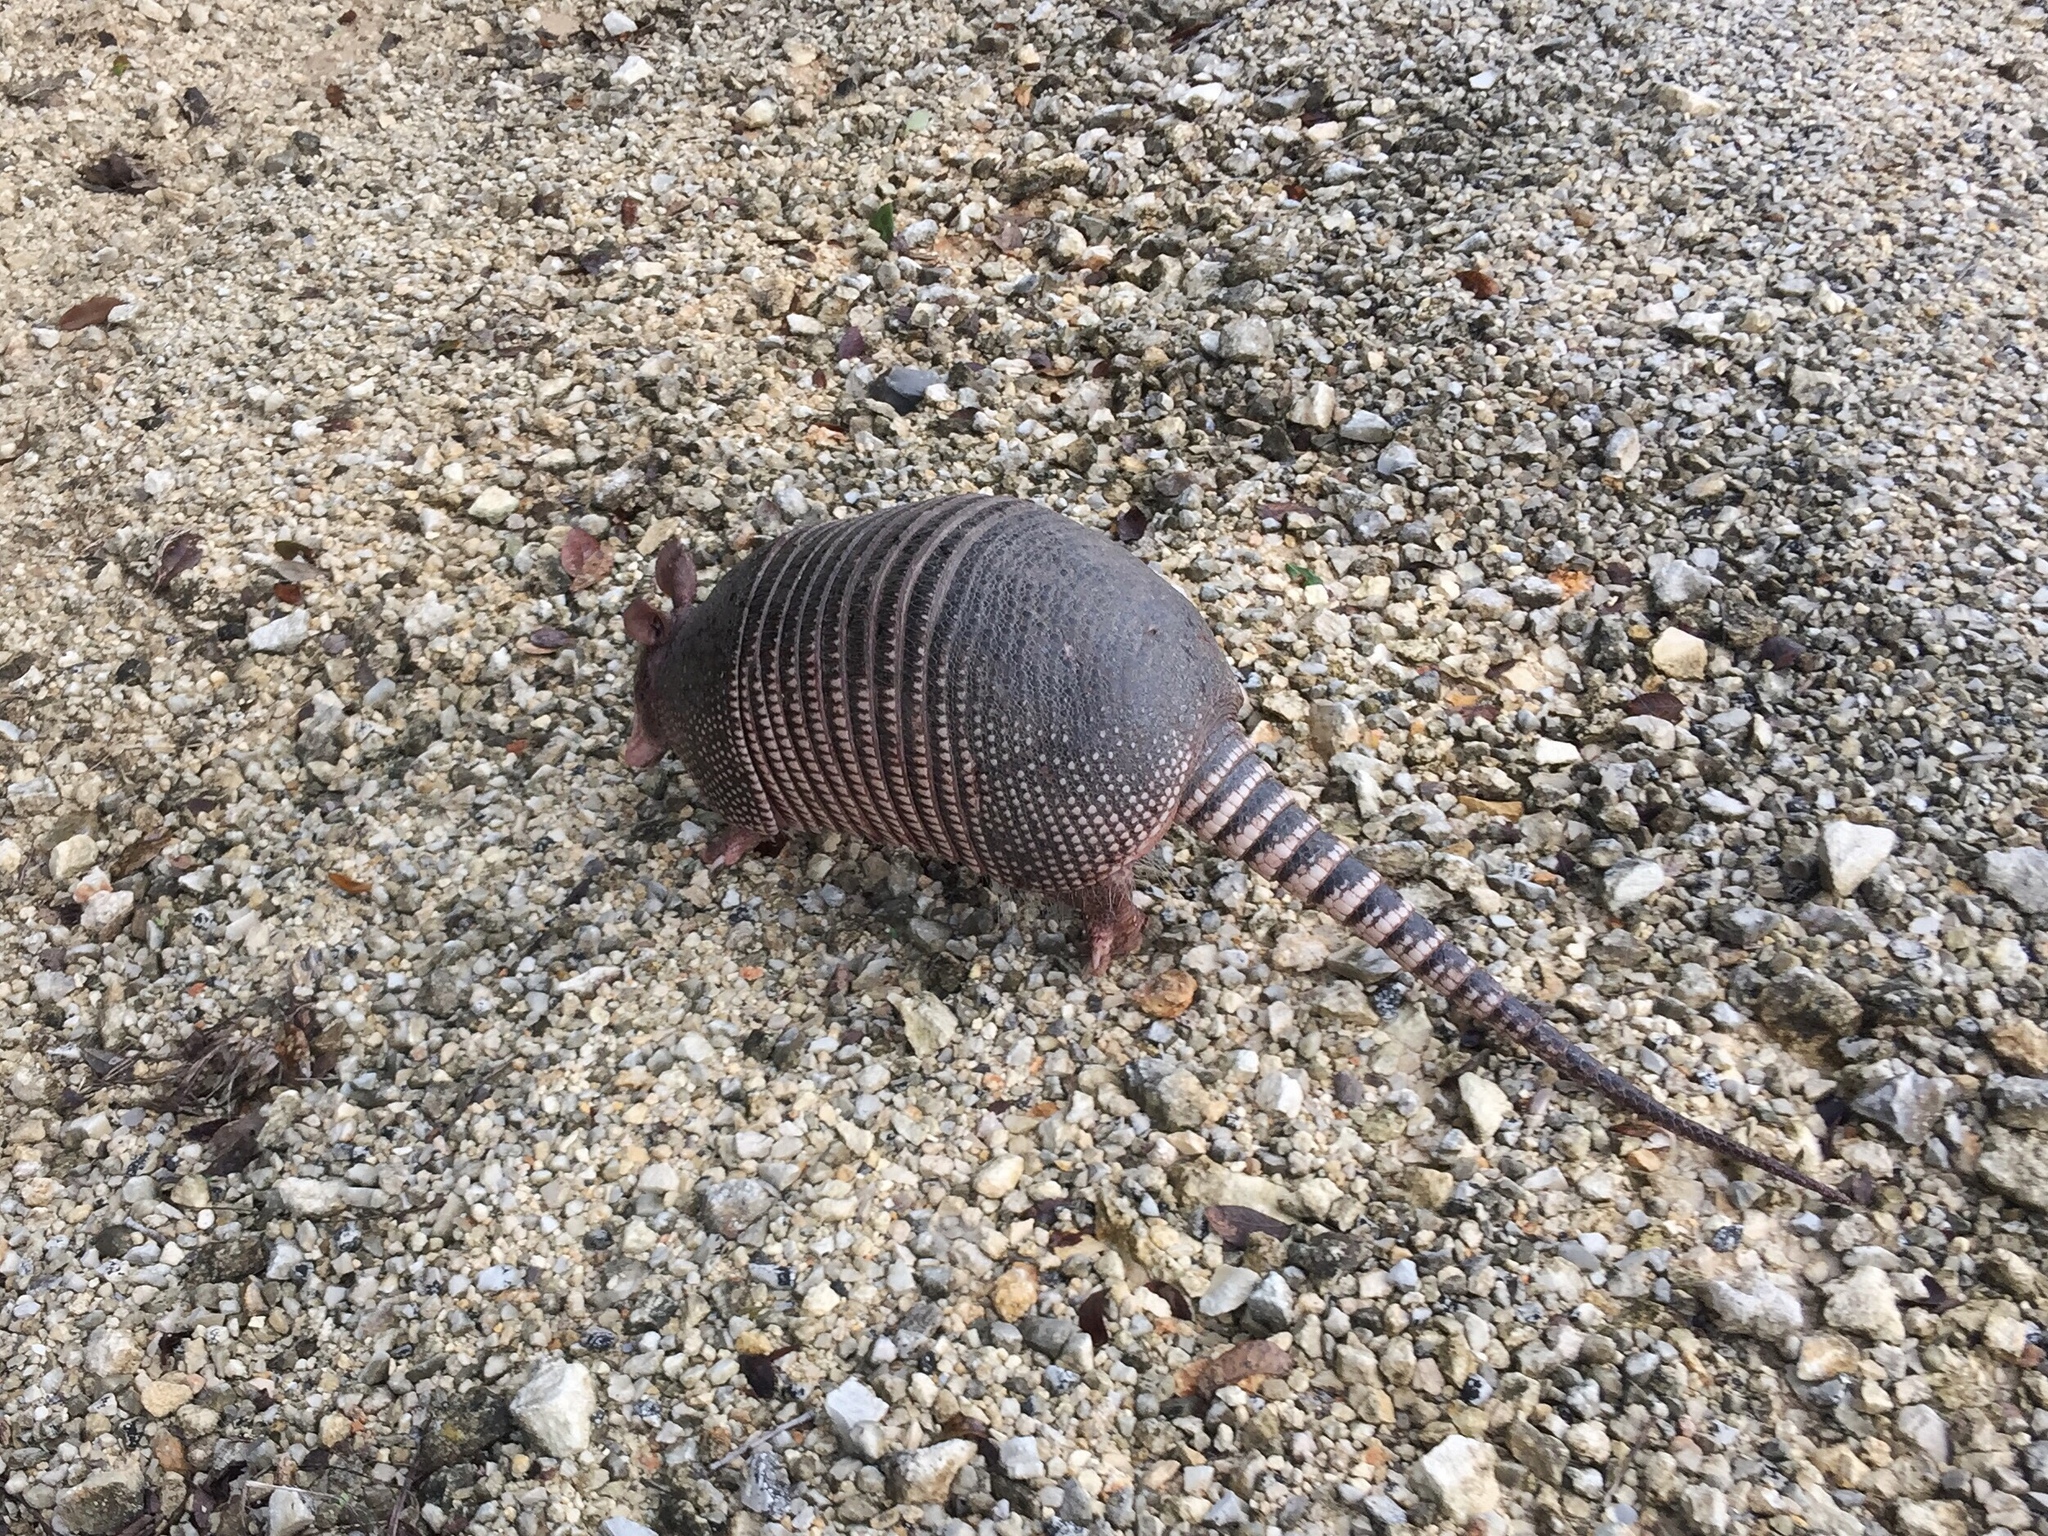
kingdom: Animalia
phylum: Chordata
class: Mammalia
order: Cingulata
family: Dasypodidae
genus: Dasypus
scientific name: Dasypus novemcinctus
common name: Nine-banded armadillo
